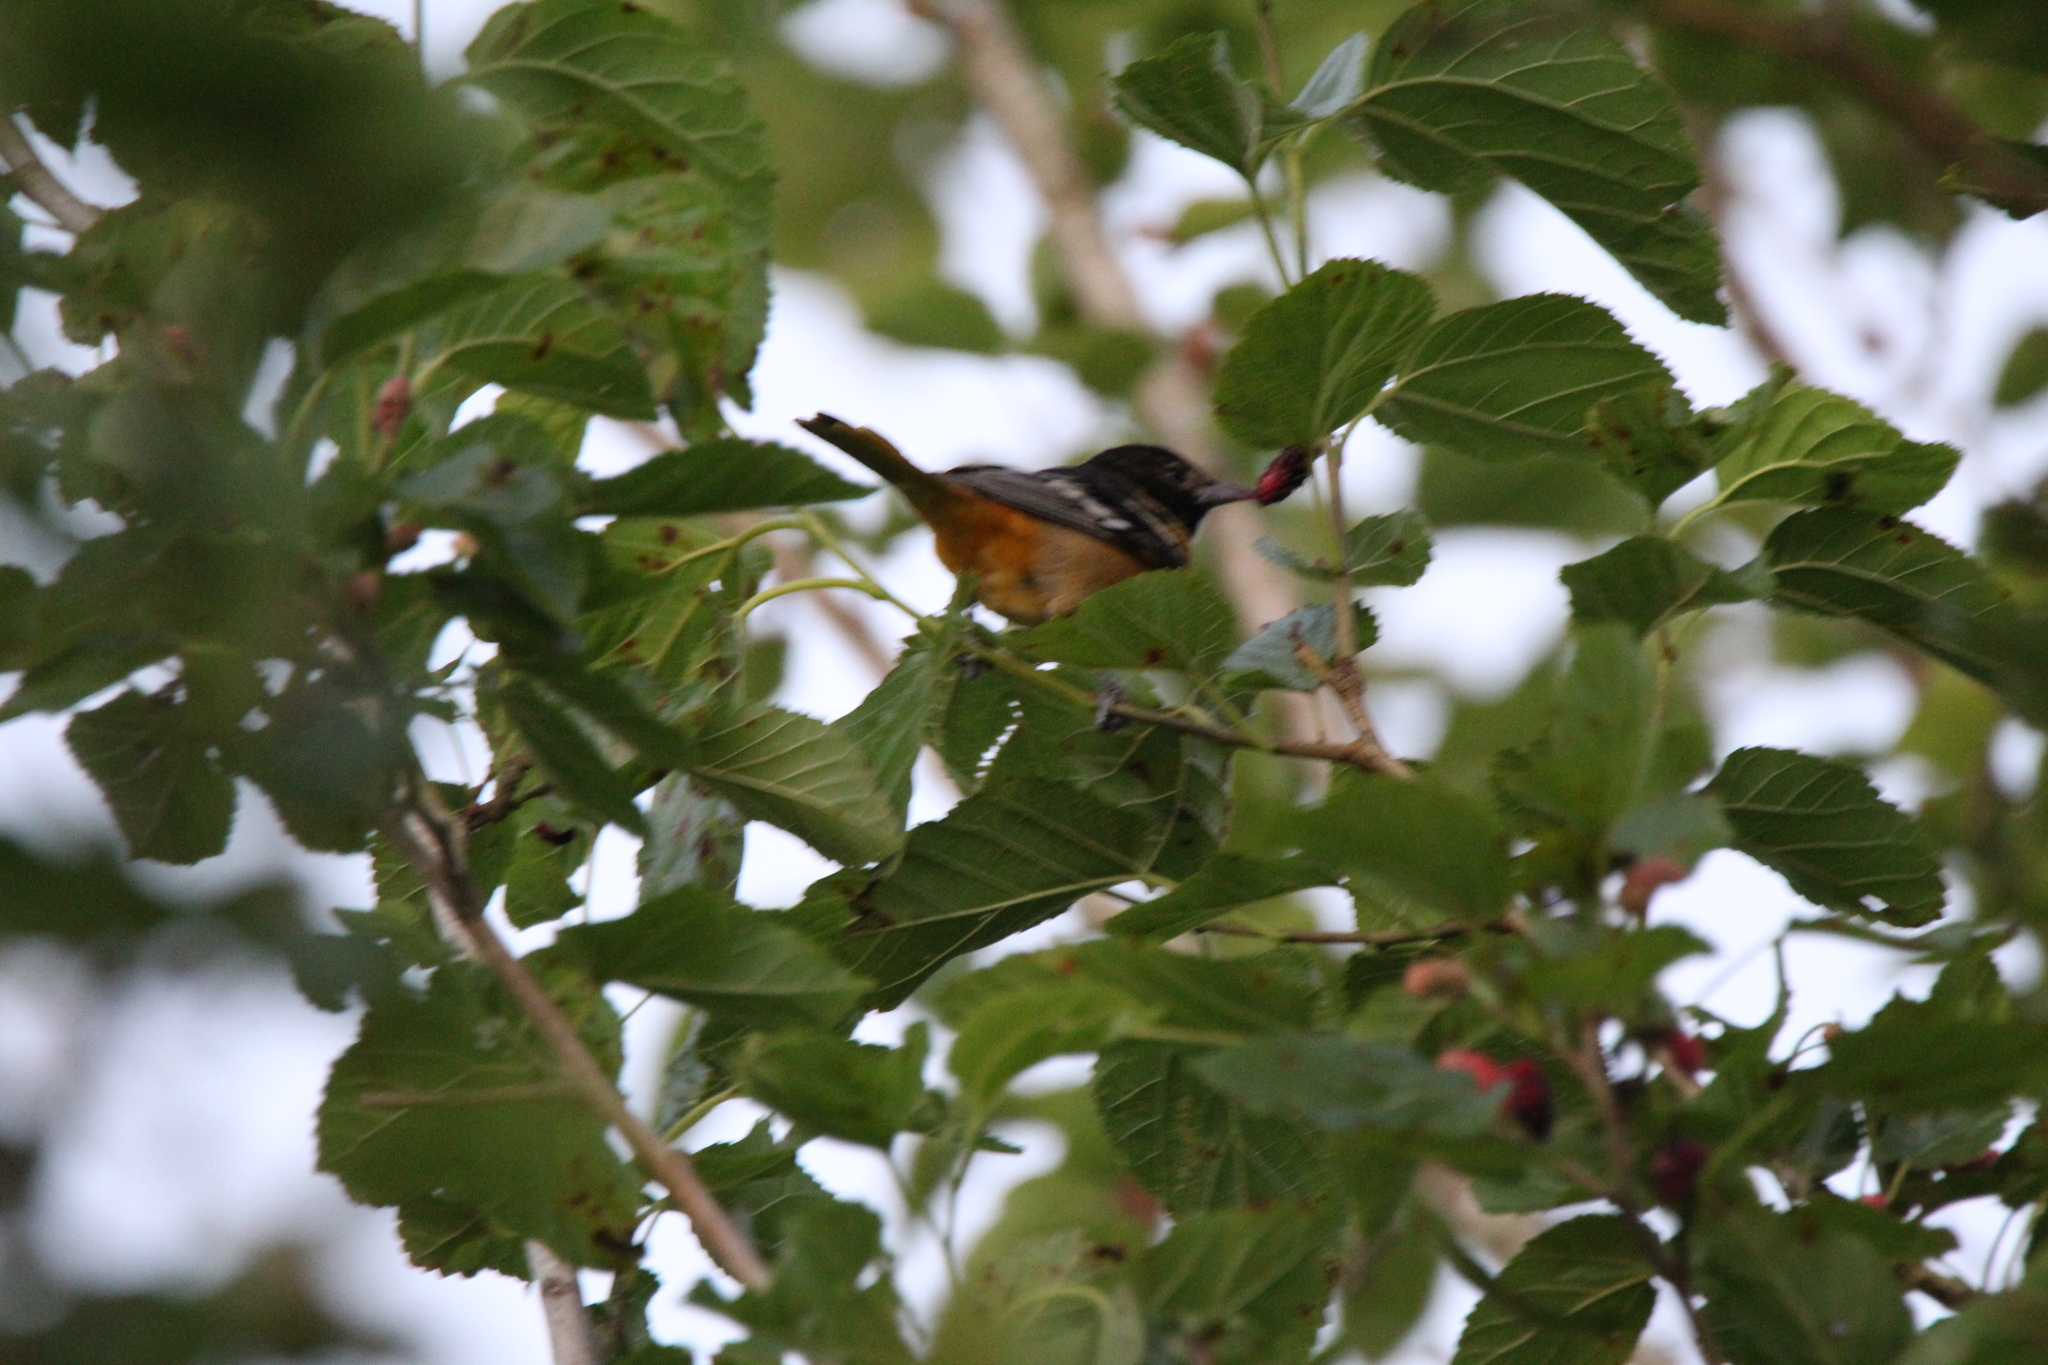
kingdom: Animalia
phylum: Chordata
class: Aves
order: Passeriformes
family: Icteridae
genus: Icterus
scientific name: Icterus galbula
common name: Baltimore oriole
